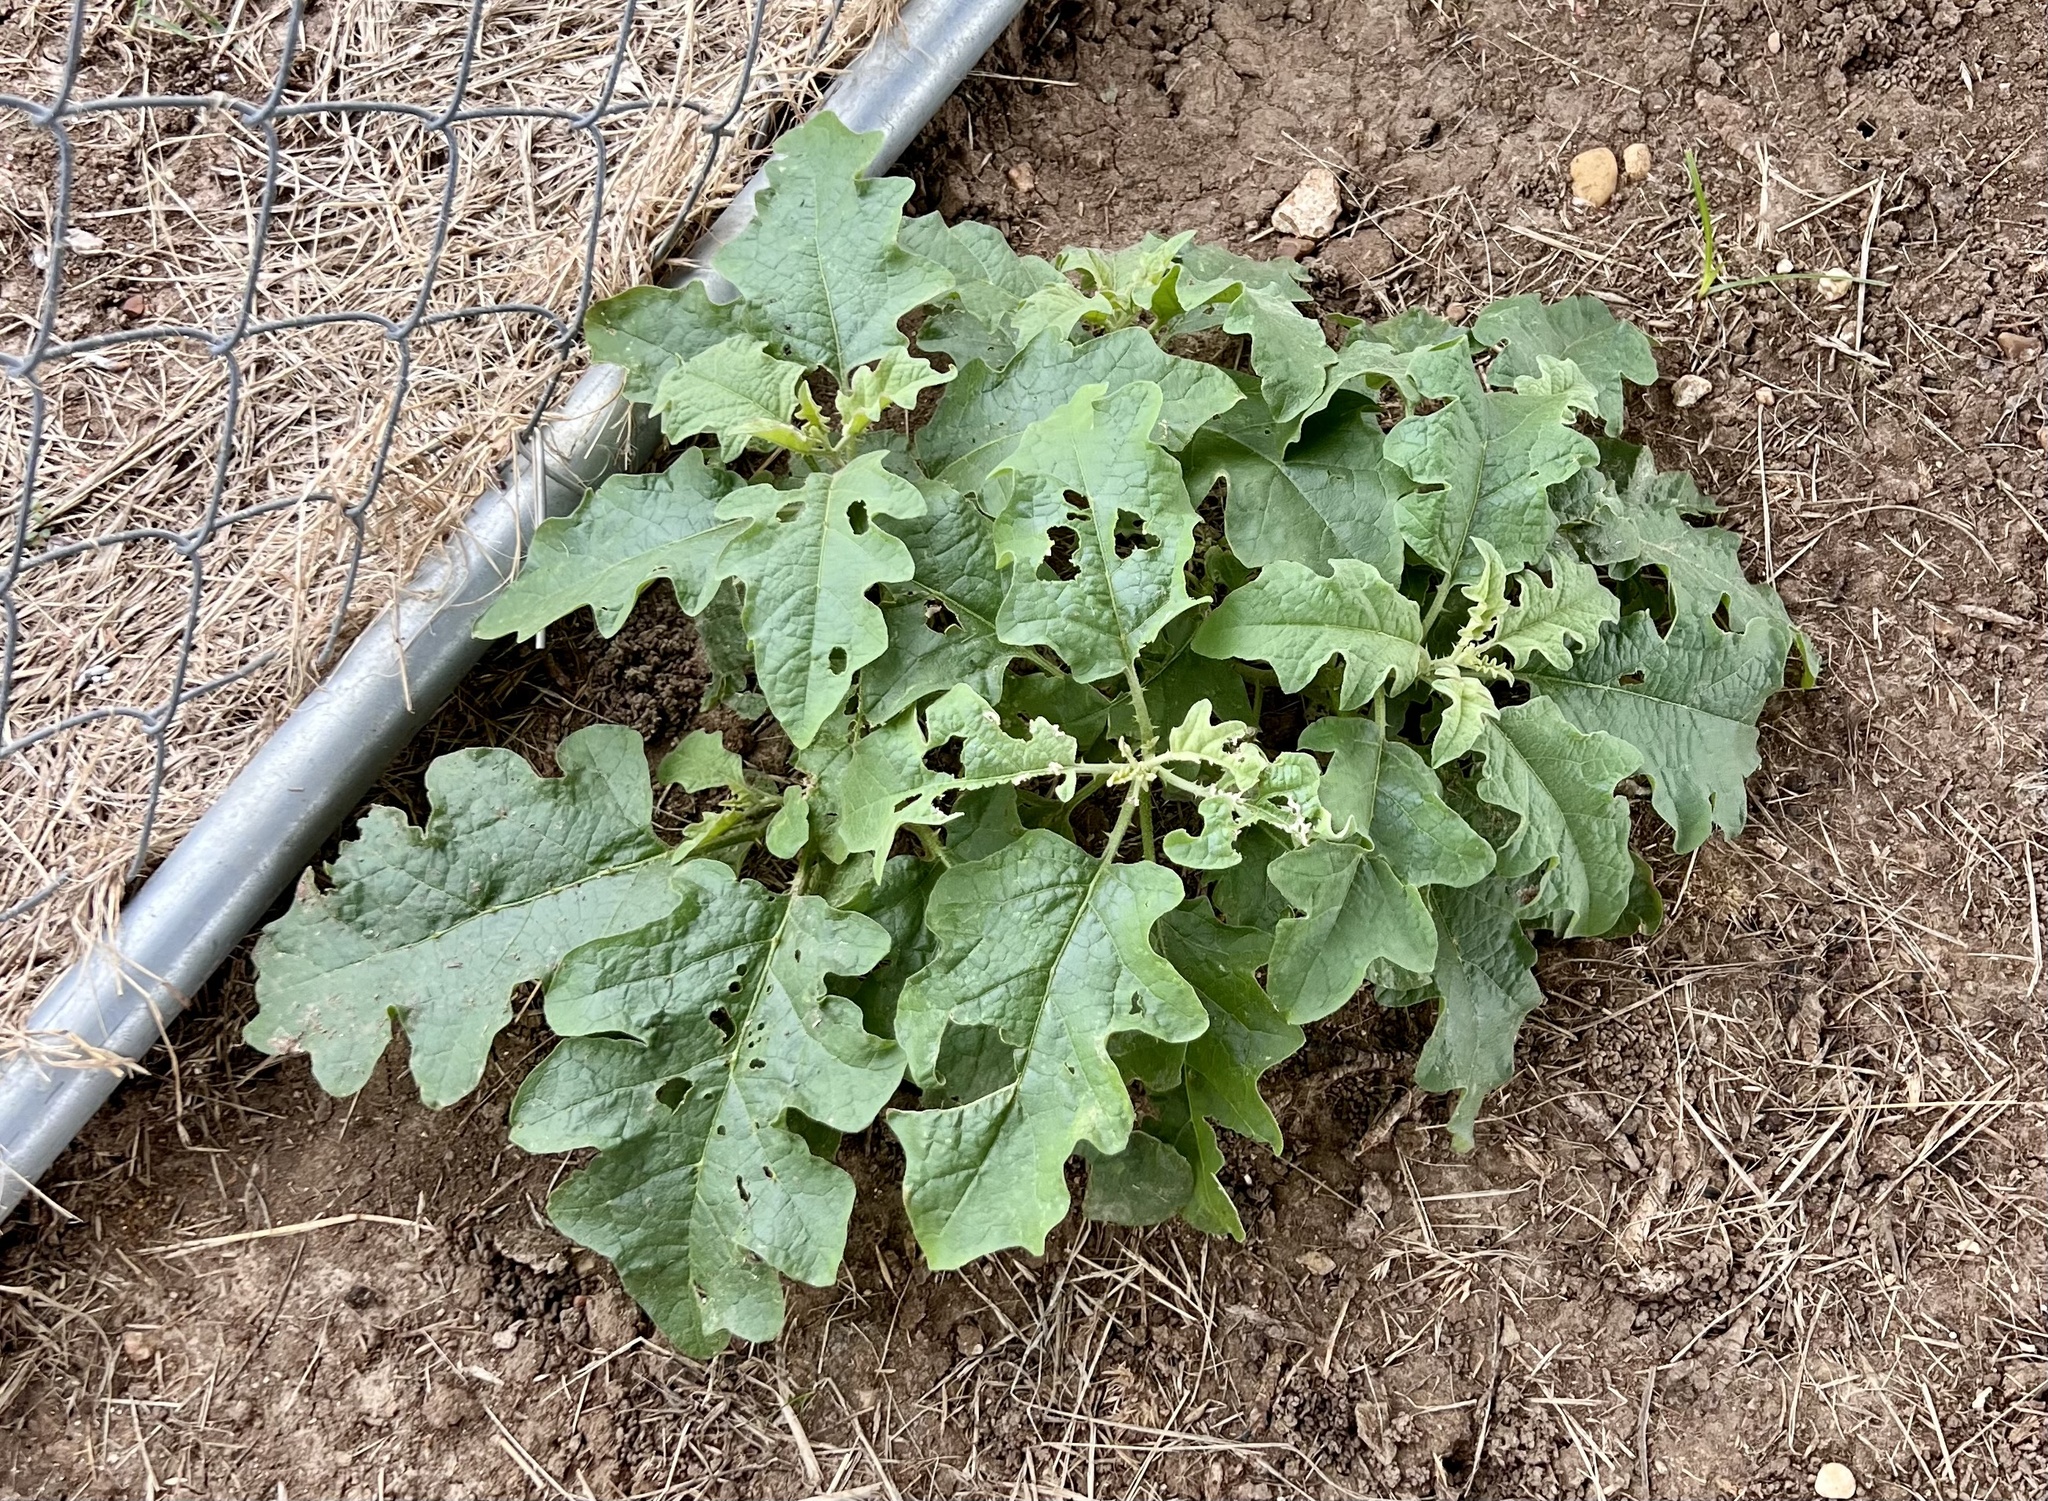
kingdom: Plantae
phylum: Tracheophyta
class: Magnoliopsida
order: Solanales
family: Solanaceae
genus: Solanum
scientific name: Solanum dimidiatum
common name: Carolina horse-nettle
